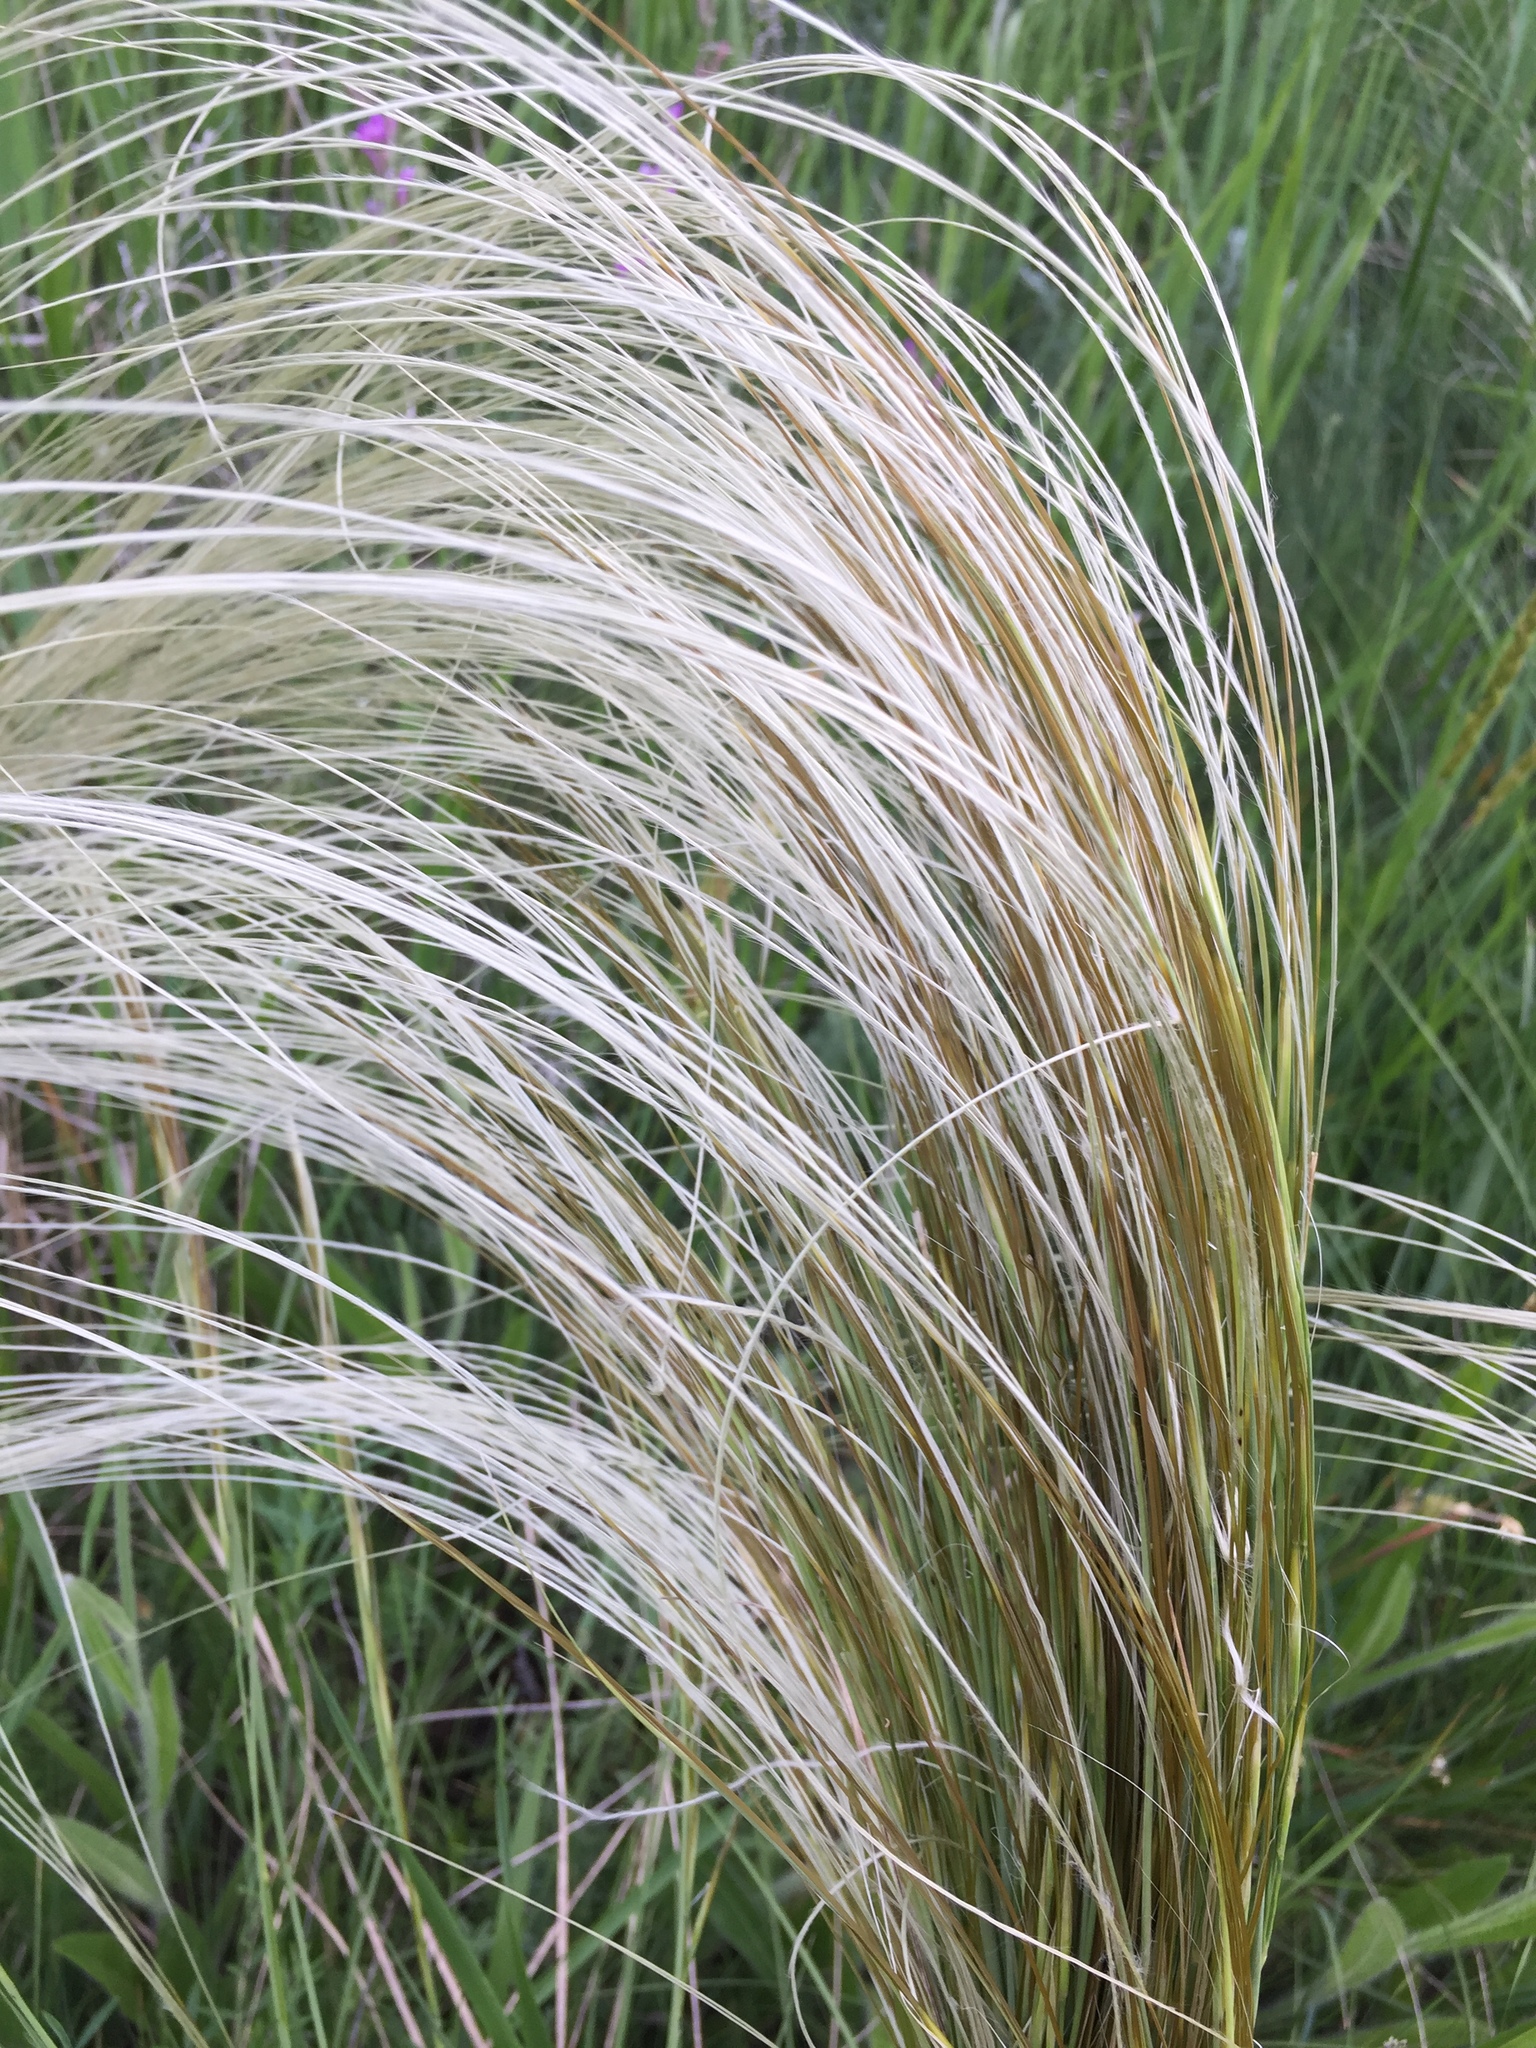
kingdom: Plantae
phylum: Tracheophyta
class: Liliopsida
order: Poales
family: Poaceae
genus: Stipa
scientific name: Stipa pennata
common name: European feather grass
